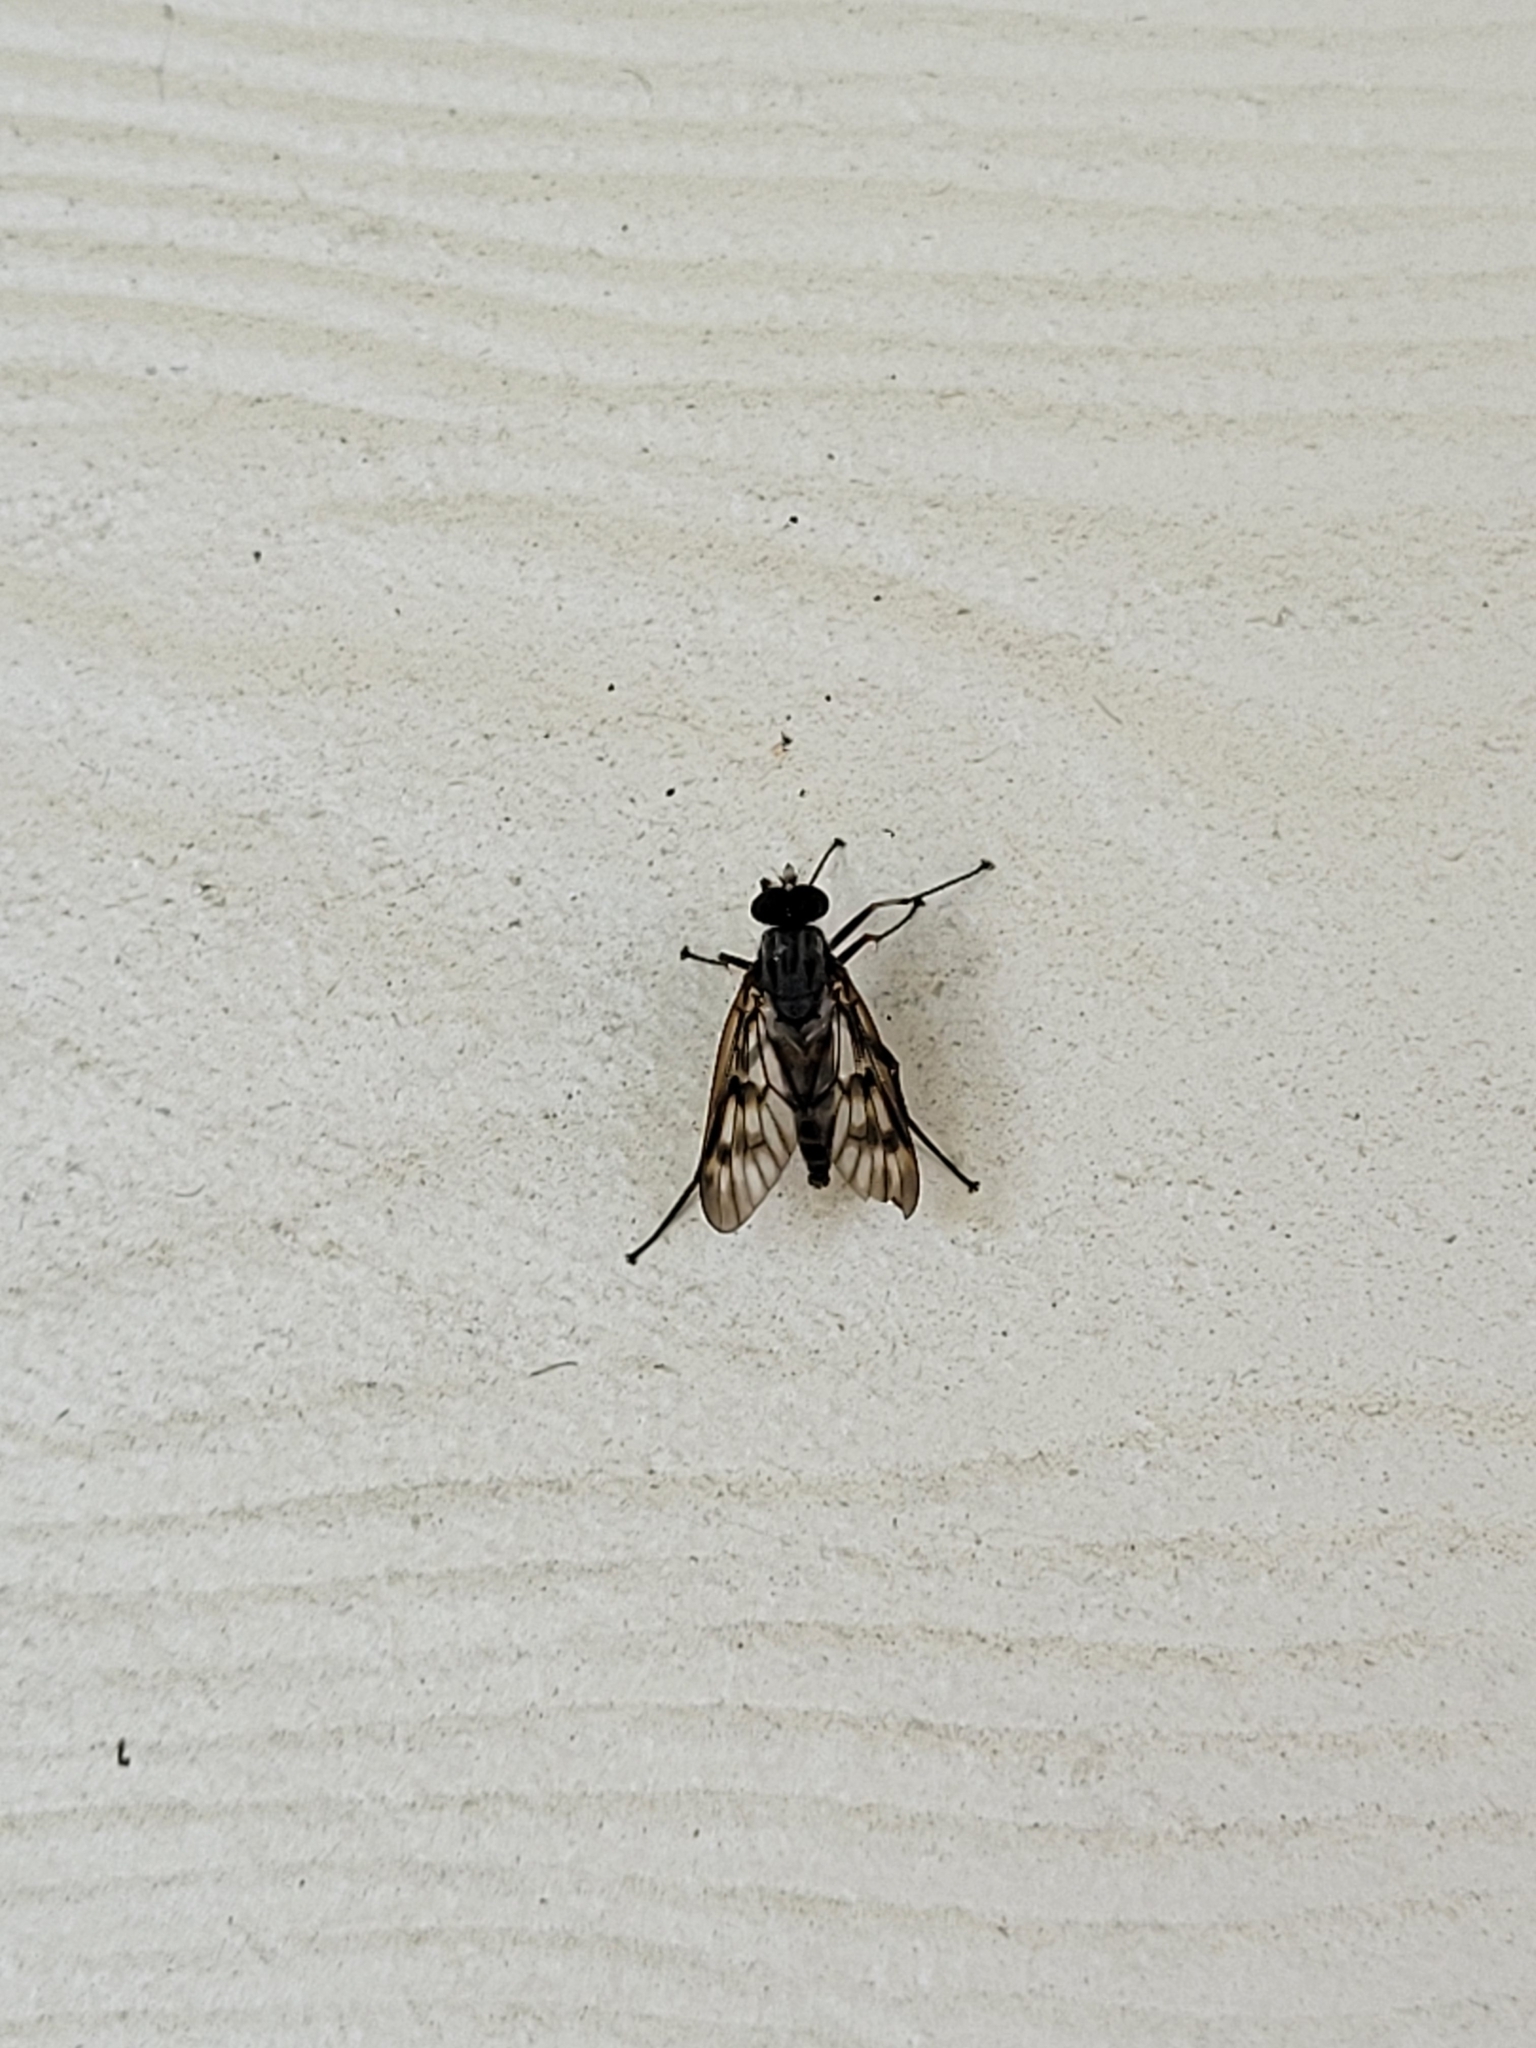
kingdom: Animalia
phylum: Arthropoda
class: Insecta
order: Diptera
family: Rhagionidae
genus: Rhagio
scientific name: Rhagio mystaceus
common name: Common snipe fly
